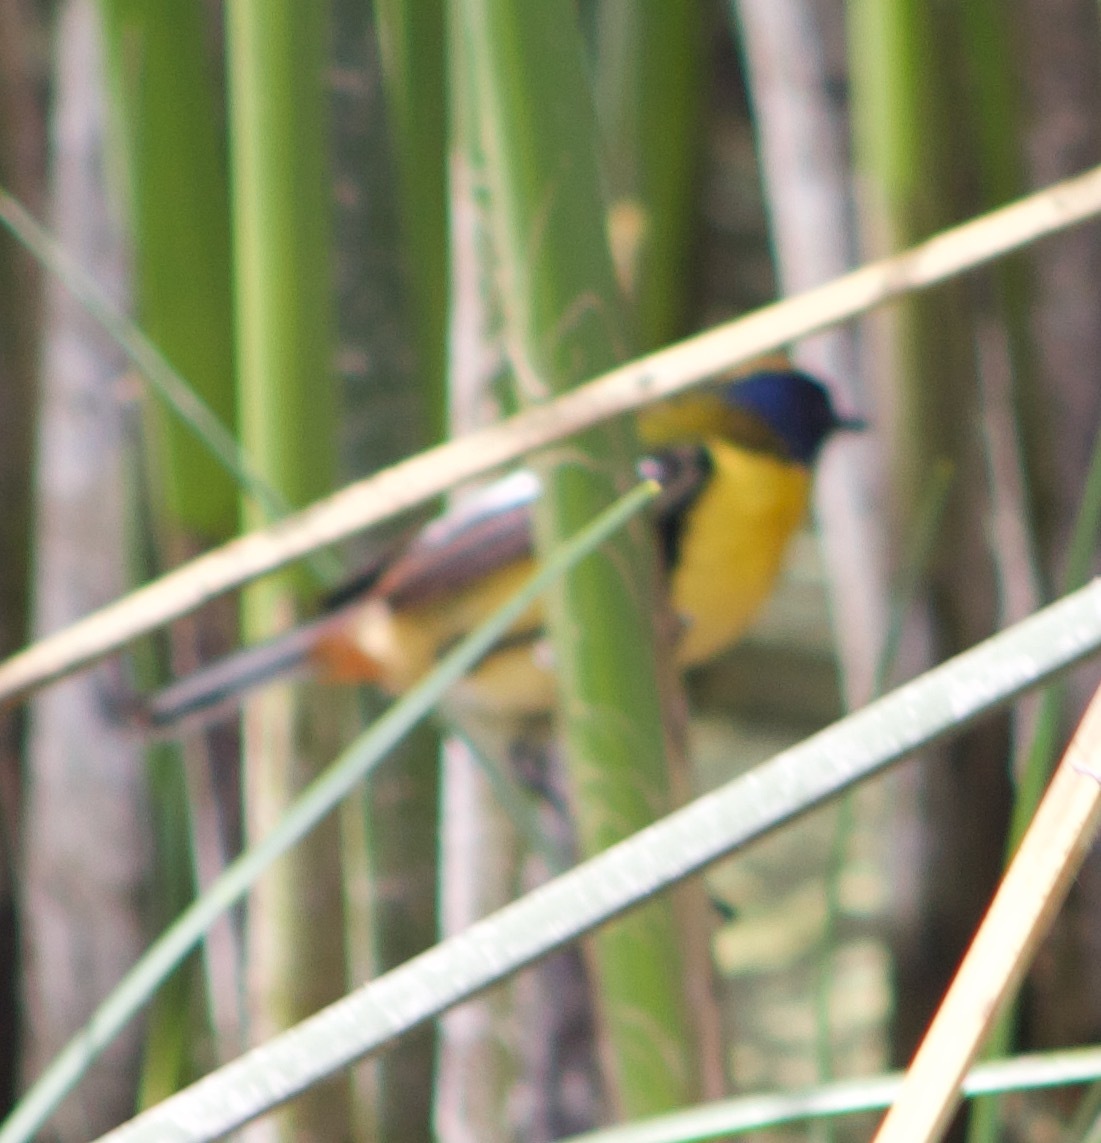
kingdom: Animalia
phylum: Chordata
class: Aves
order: Passeriformes
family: Tyrannidae
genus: Tachuris
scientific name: Tachuris rubrigastra
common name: Many-colored rush tyrant
